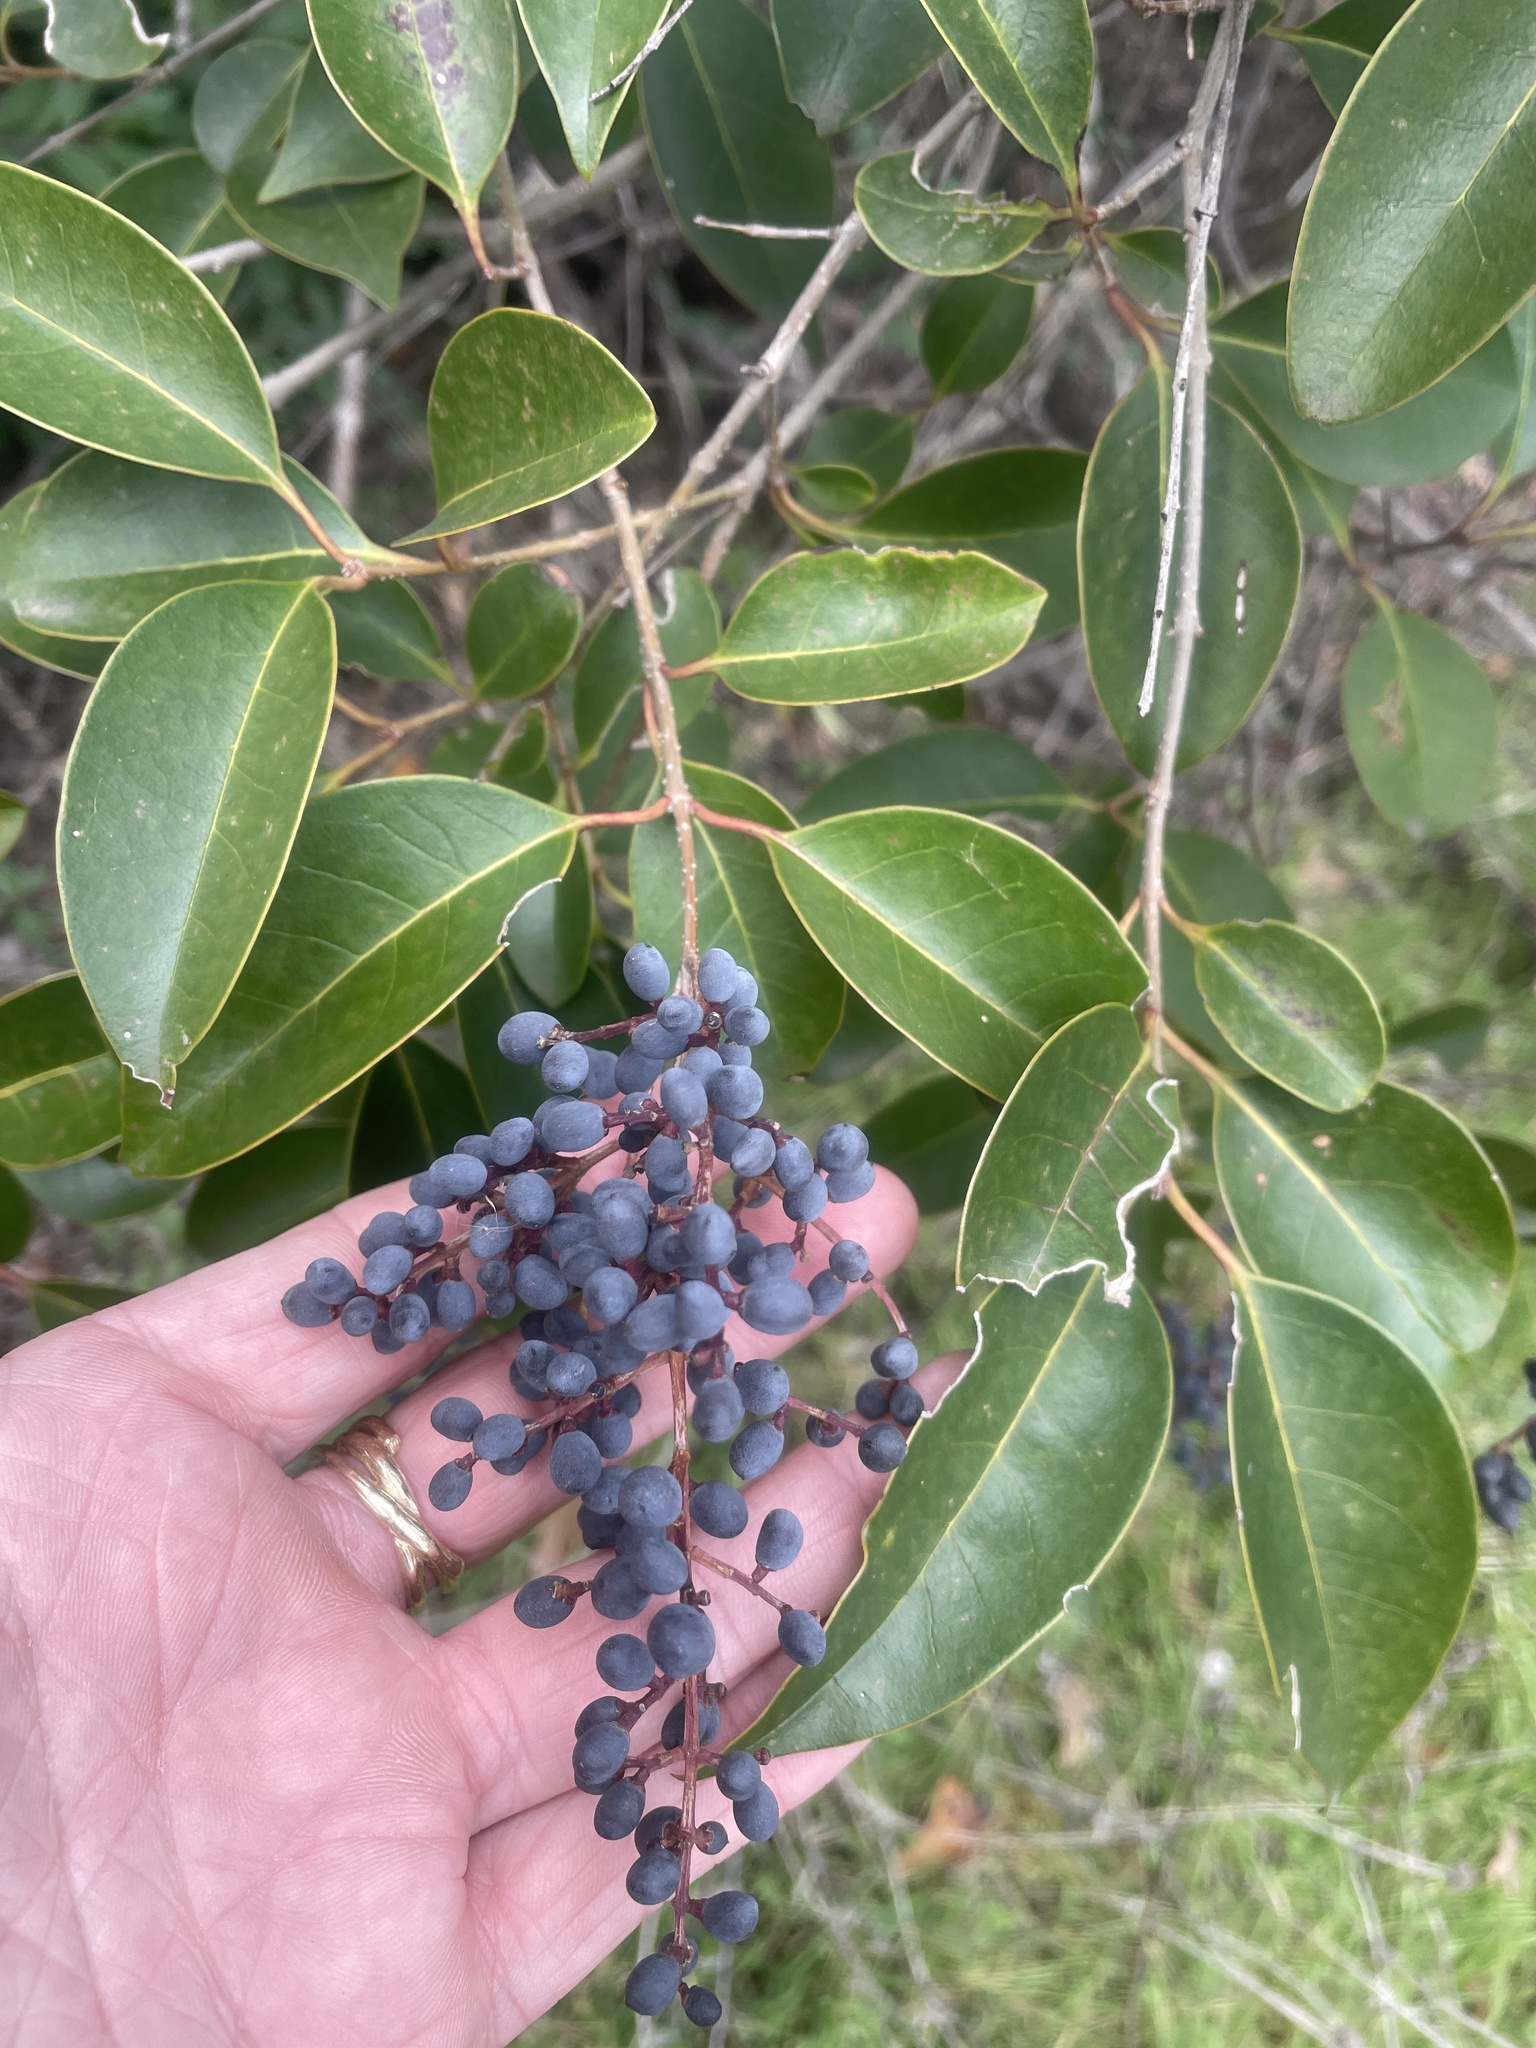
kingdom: Plantae
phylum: Tracheophyta
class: Magnoliopsida
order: Lamiales
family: Oleaceae
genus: Ligustrum
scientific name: Ligustrum lucidum
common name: Glossy privet
